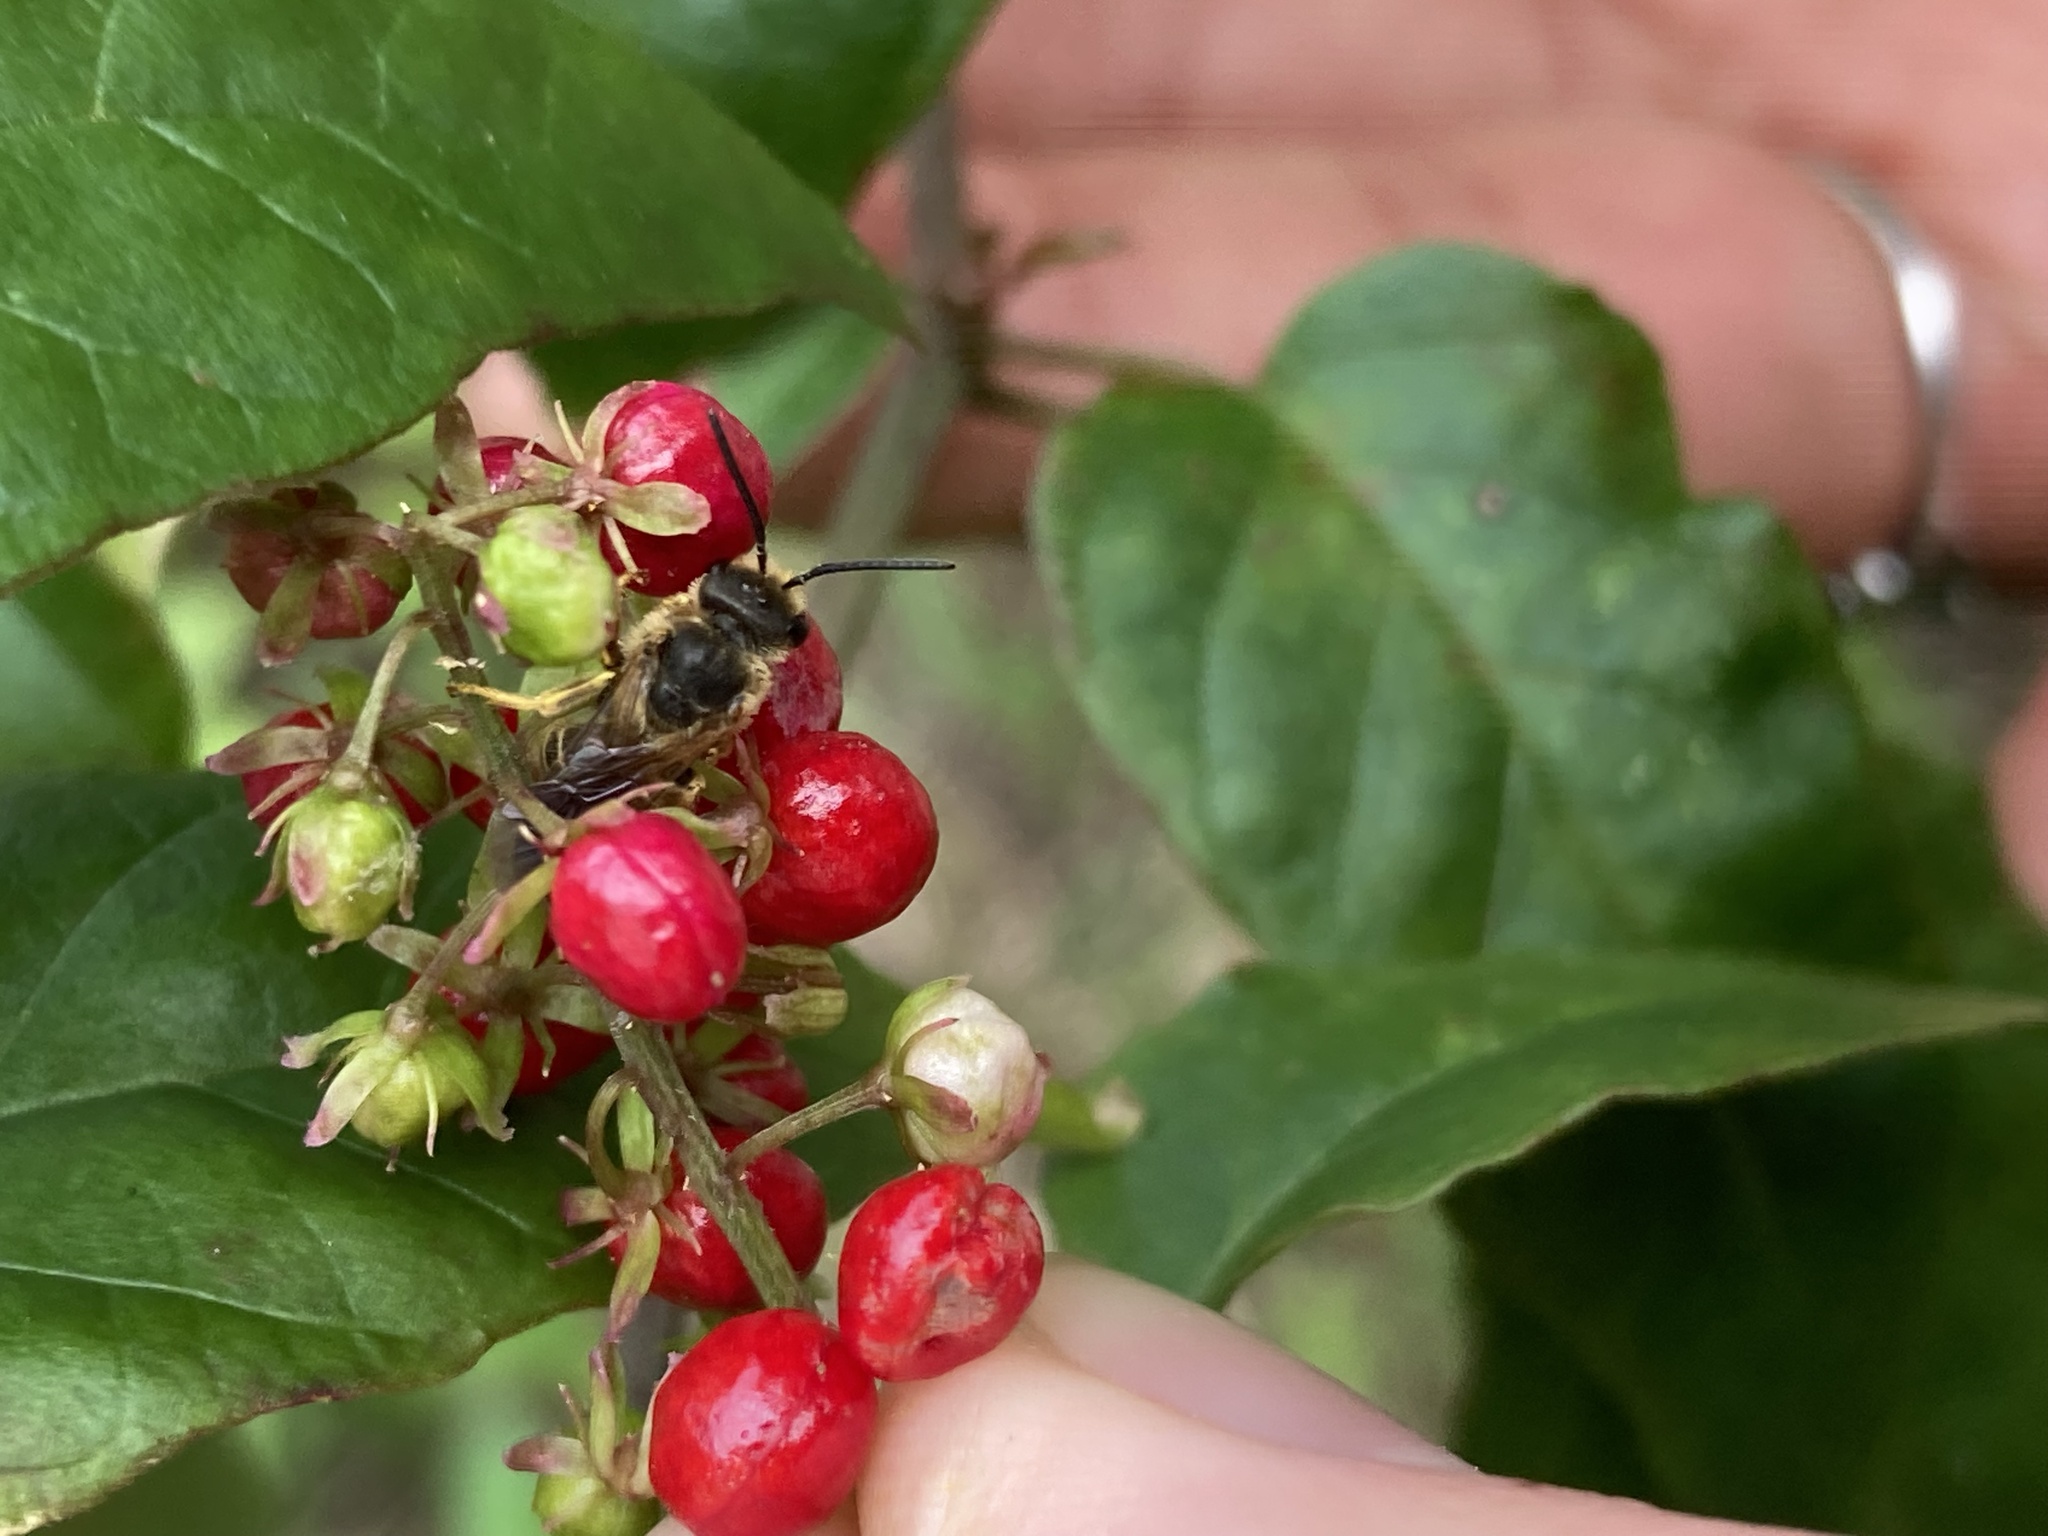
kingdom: Animalia
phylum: Arthropoda
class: Insecta
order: Hymenoptera
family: Halictidae
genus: Halictus
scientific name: Halictus poeyi
